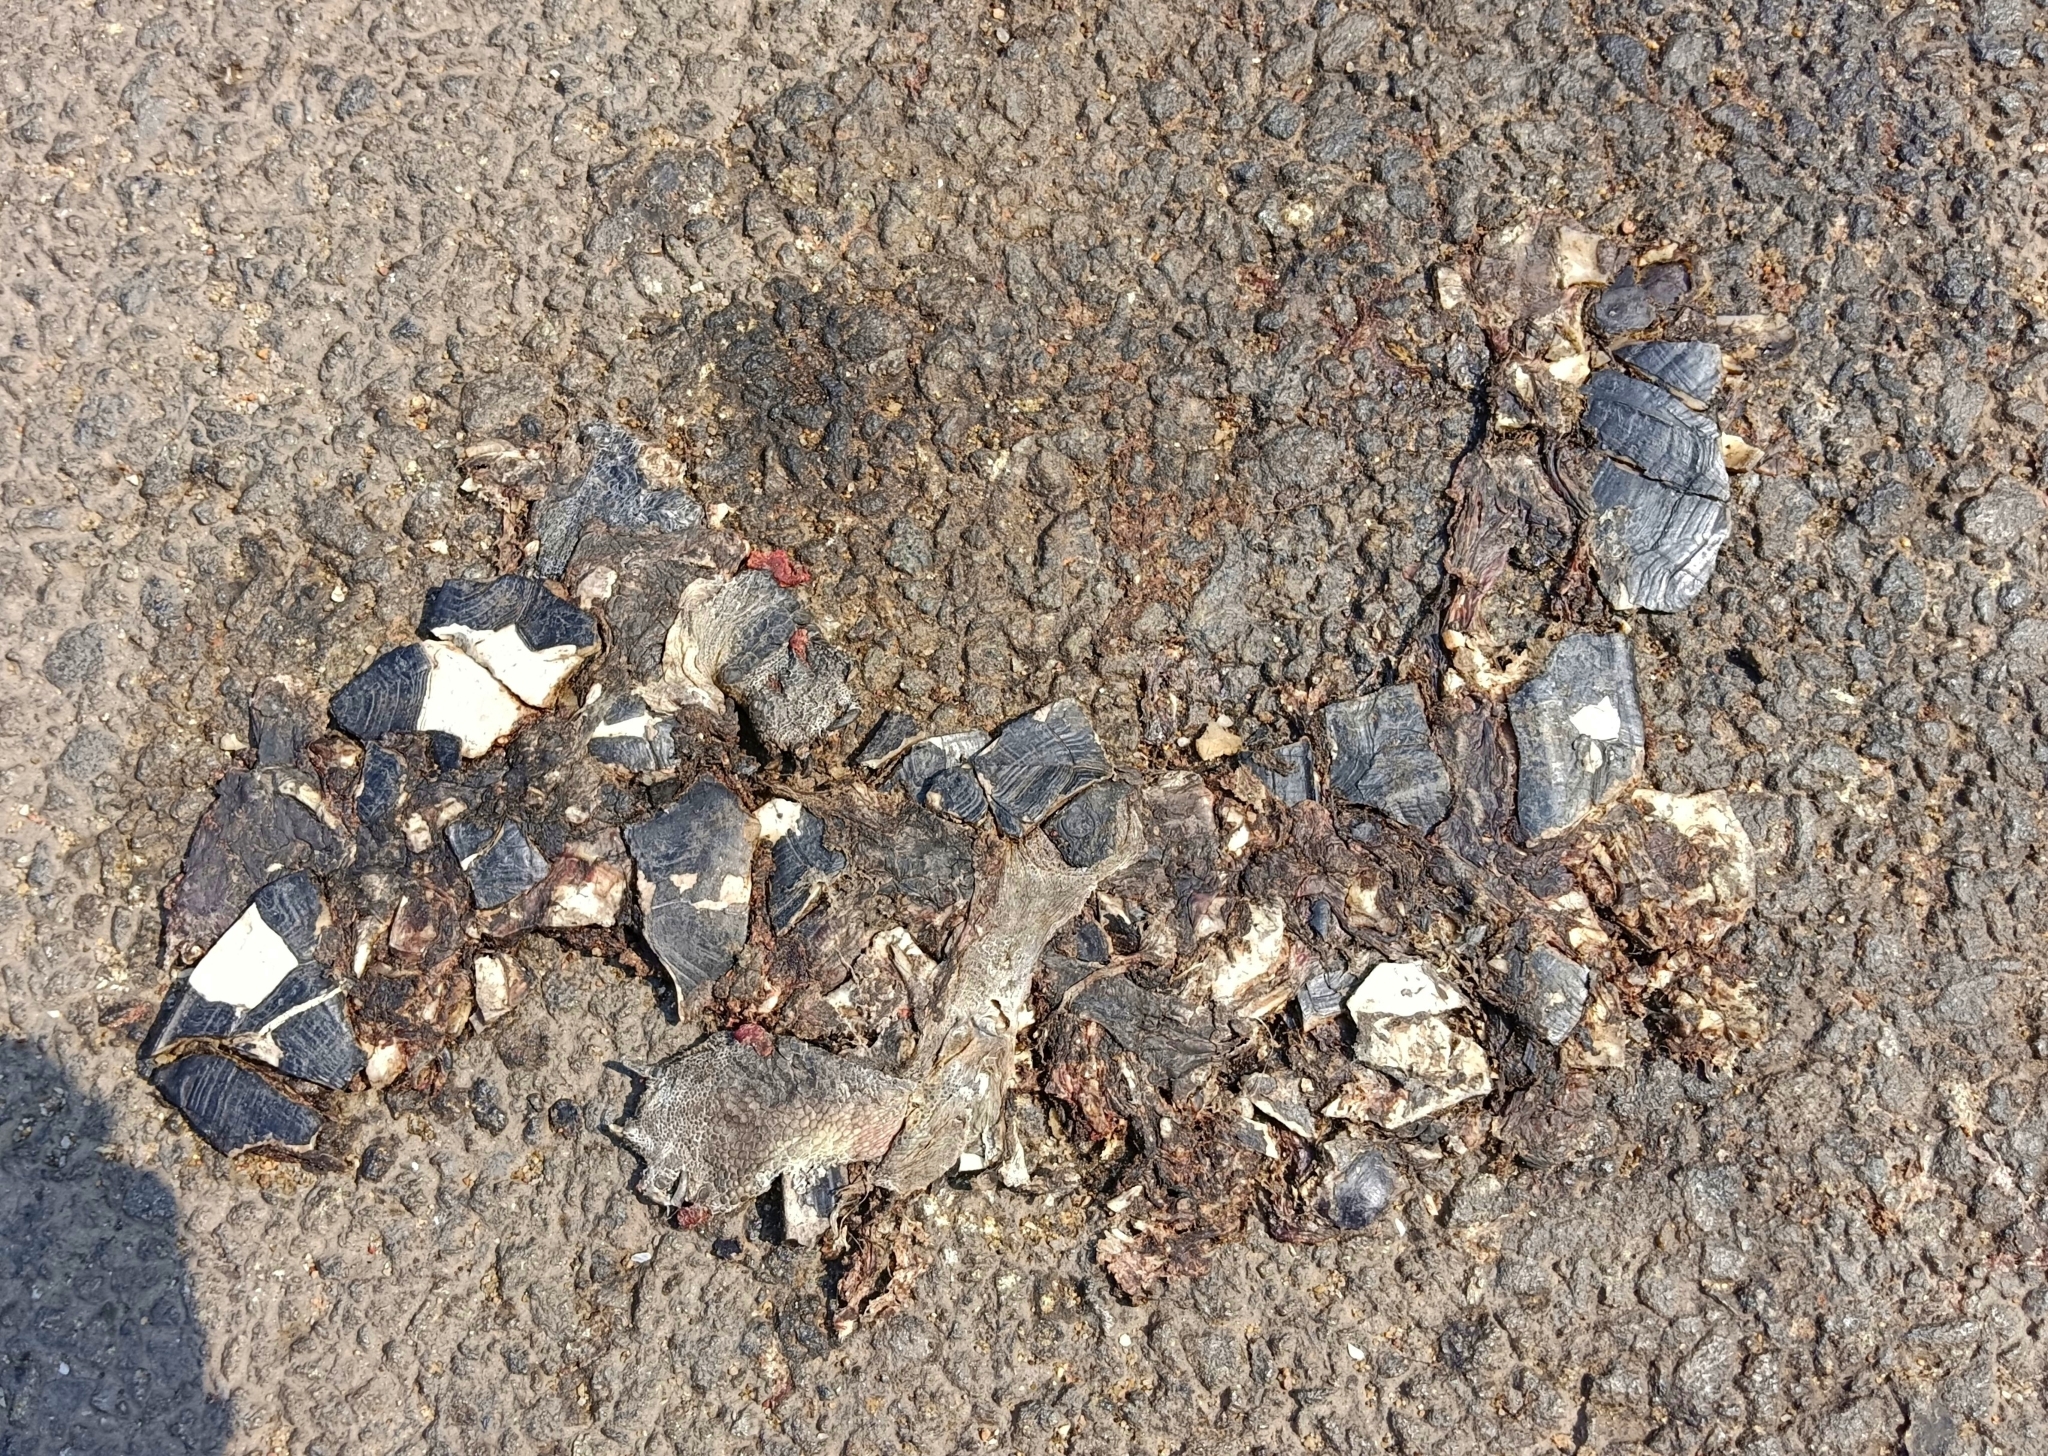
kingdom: Animalia
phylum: Chordata
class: Testudines
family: Geoemydidae
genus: Melanochelys
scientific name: Melanochelys trijuga
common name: Indian black turtle
